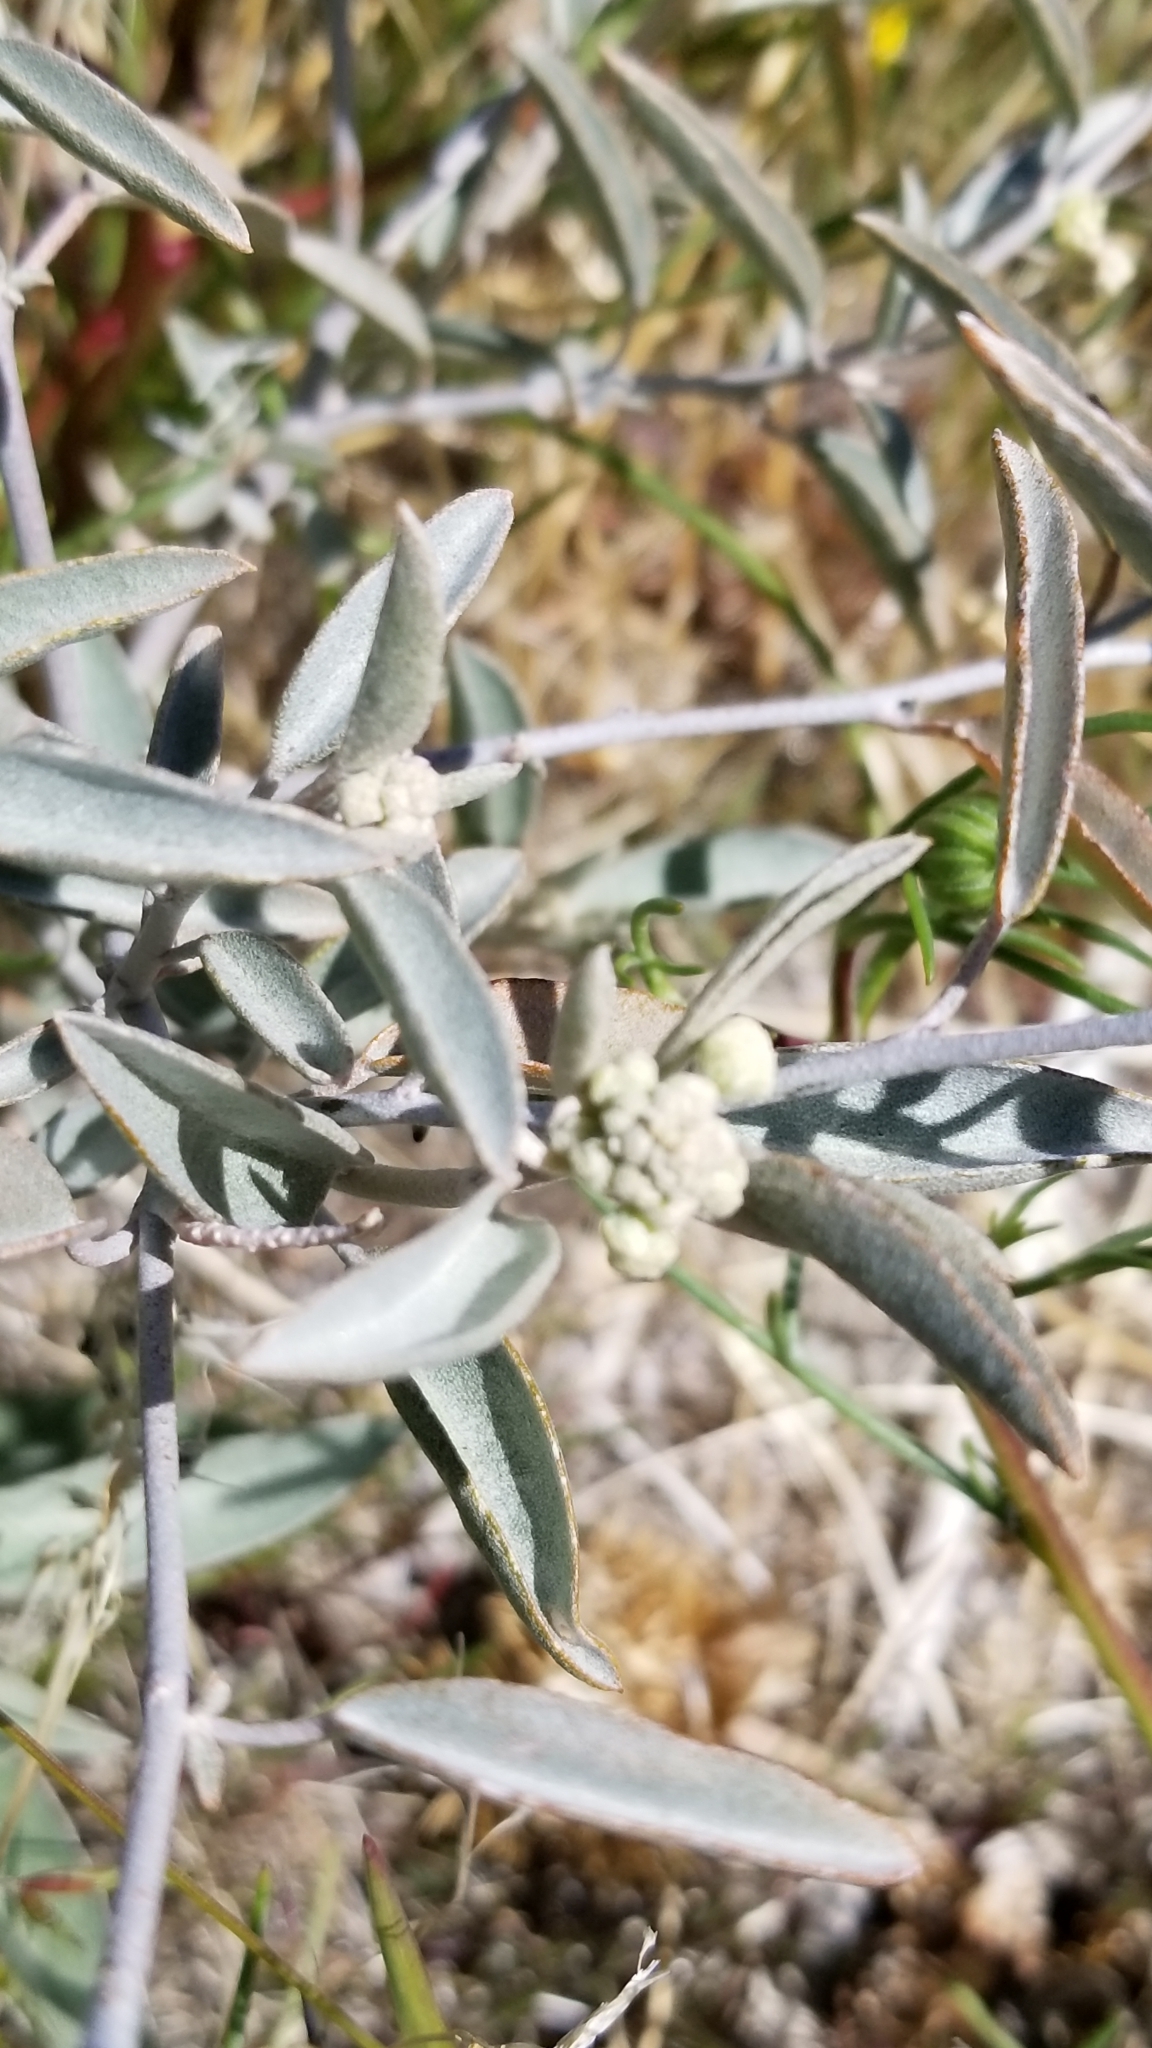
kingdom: Plantae
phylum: Tracheophyta
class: Magnoliopsida
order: Malpighiales
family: Euphorbiaceae
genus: Croton
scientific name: Croton californicus
